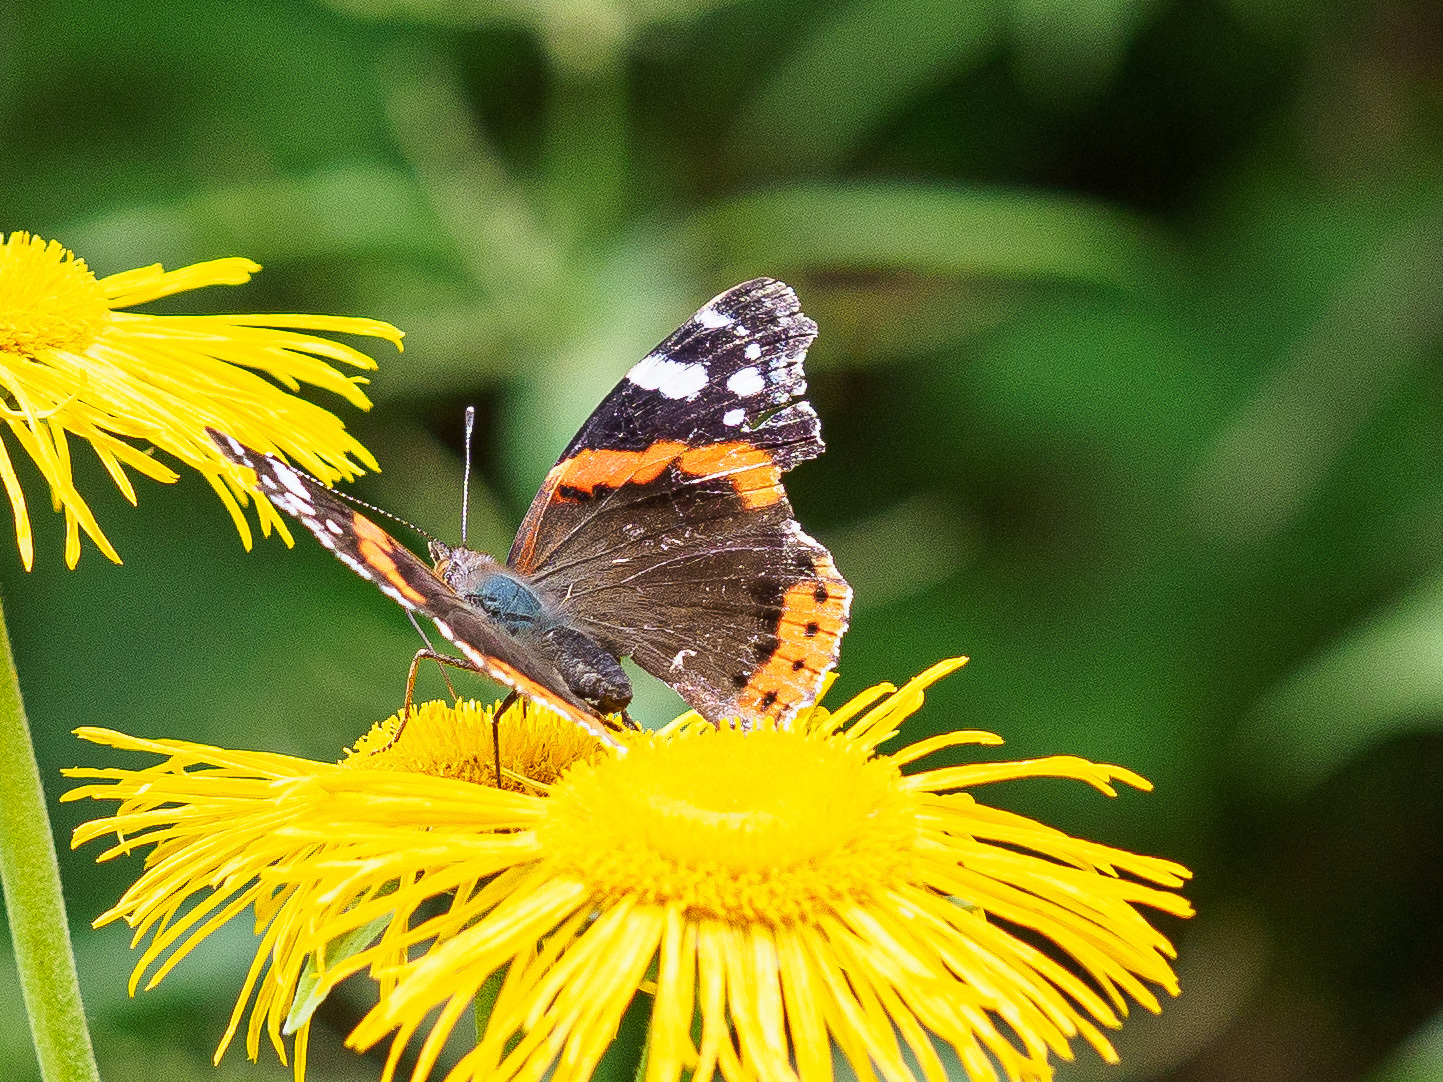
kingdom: Animalia
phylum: Arthropoda
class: Insecta
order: Lepidoptera
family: Nymphalidae
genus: Vanessa
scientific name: Vanessa atalanta
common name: Red admiral
